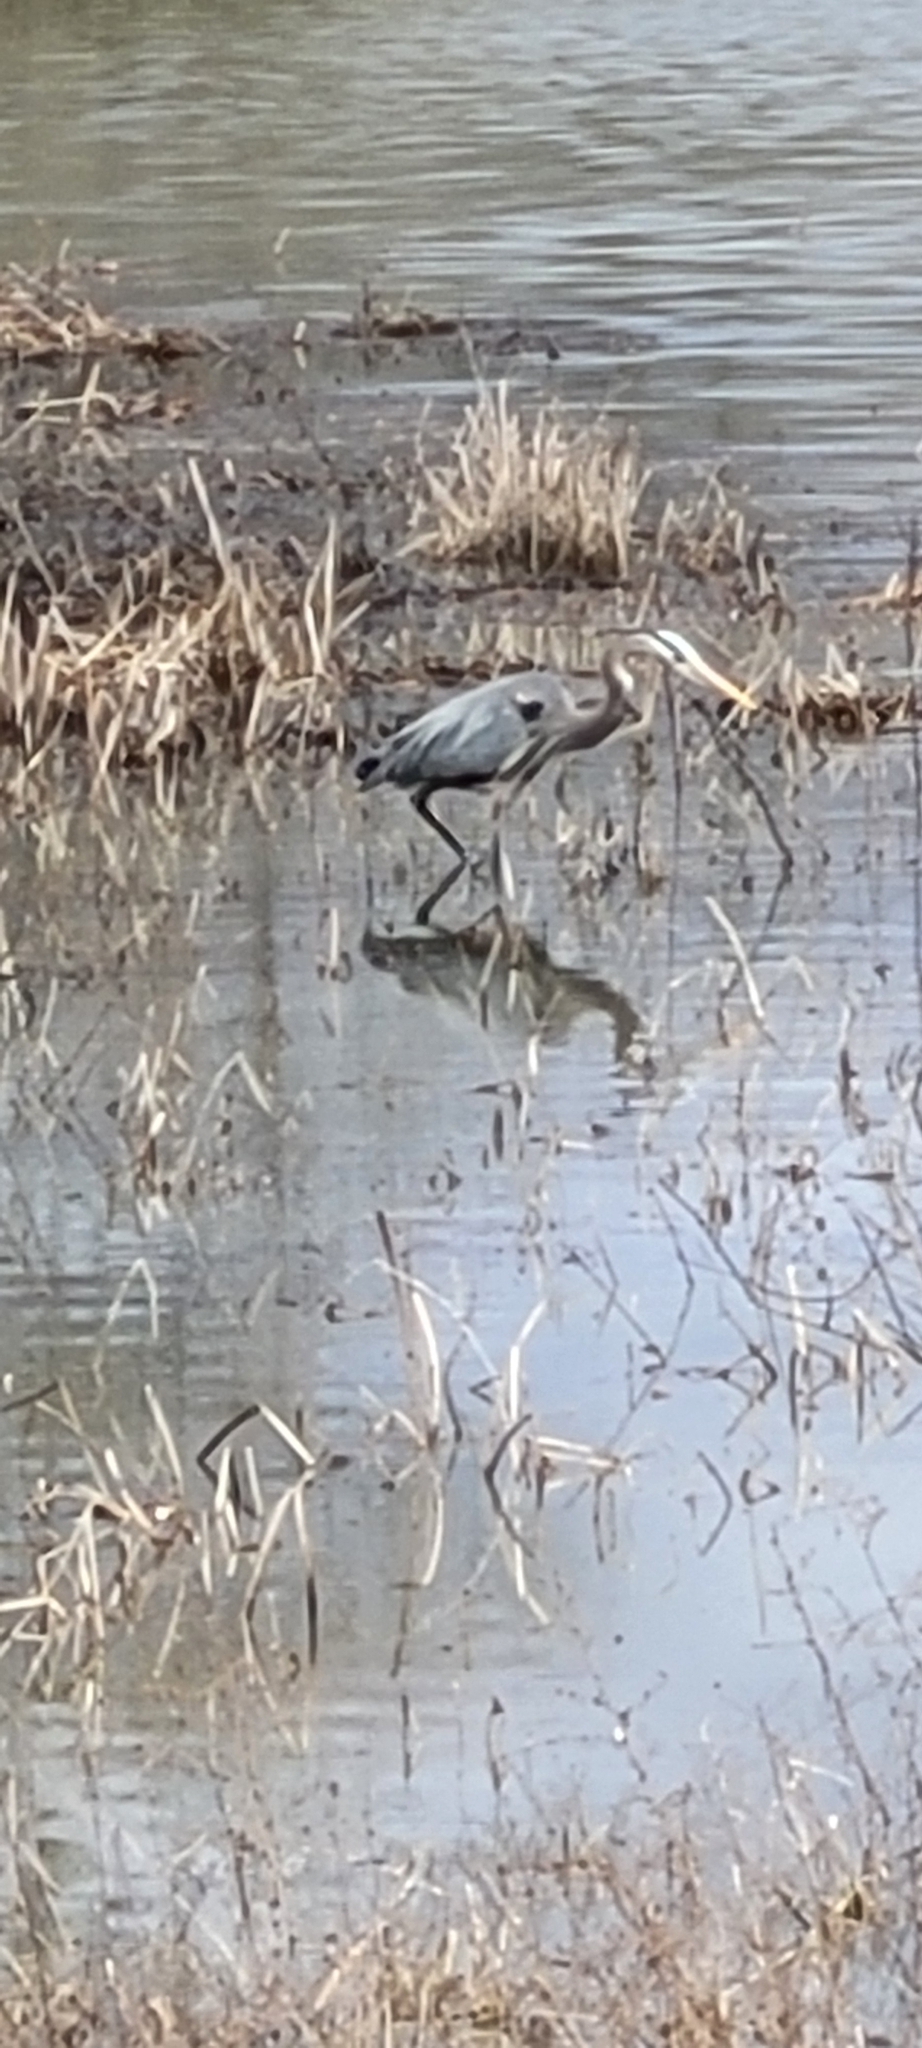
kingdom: Animalia
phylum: Chordata
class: Aves
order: Pelecaniformes
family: Ardeidae
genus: Ardea
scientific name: Ardea herodias
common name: Great blue heron
